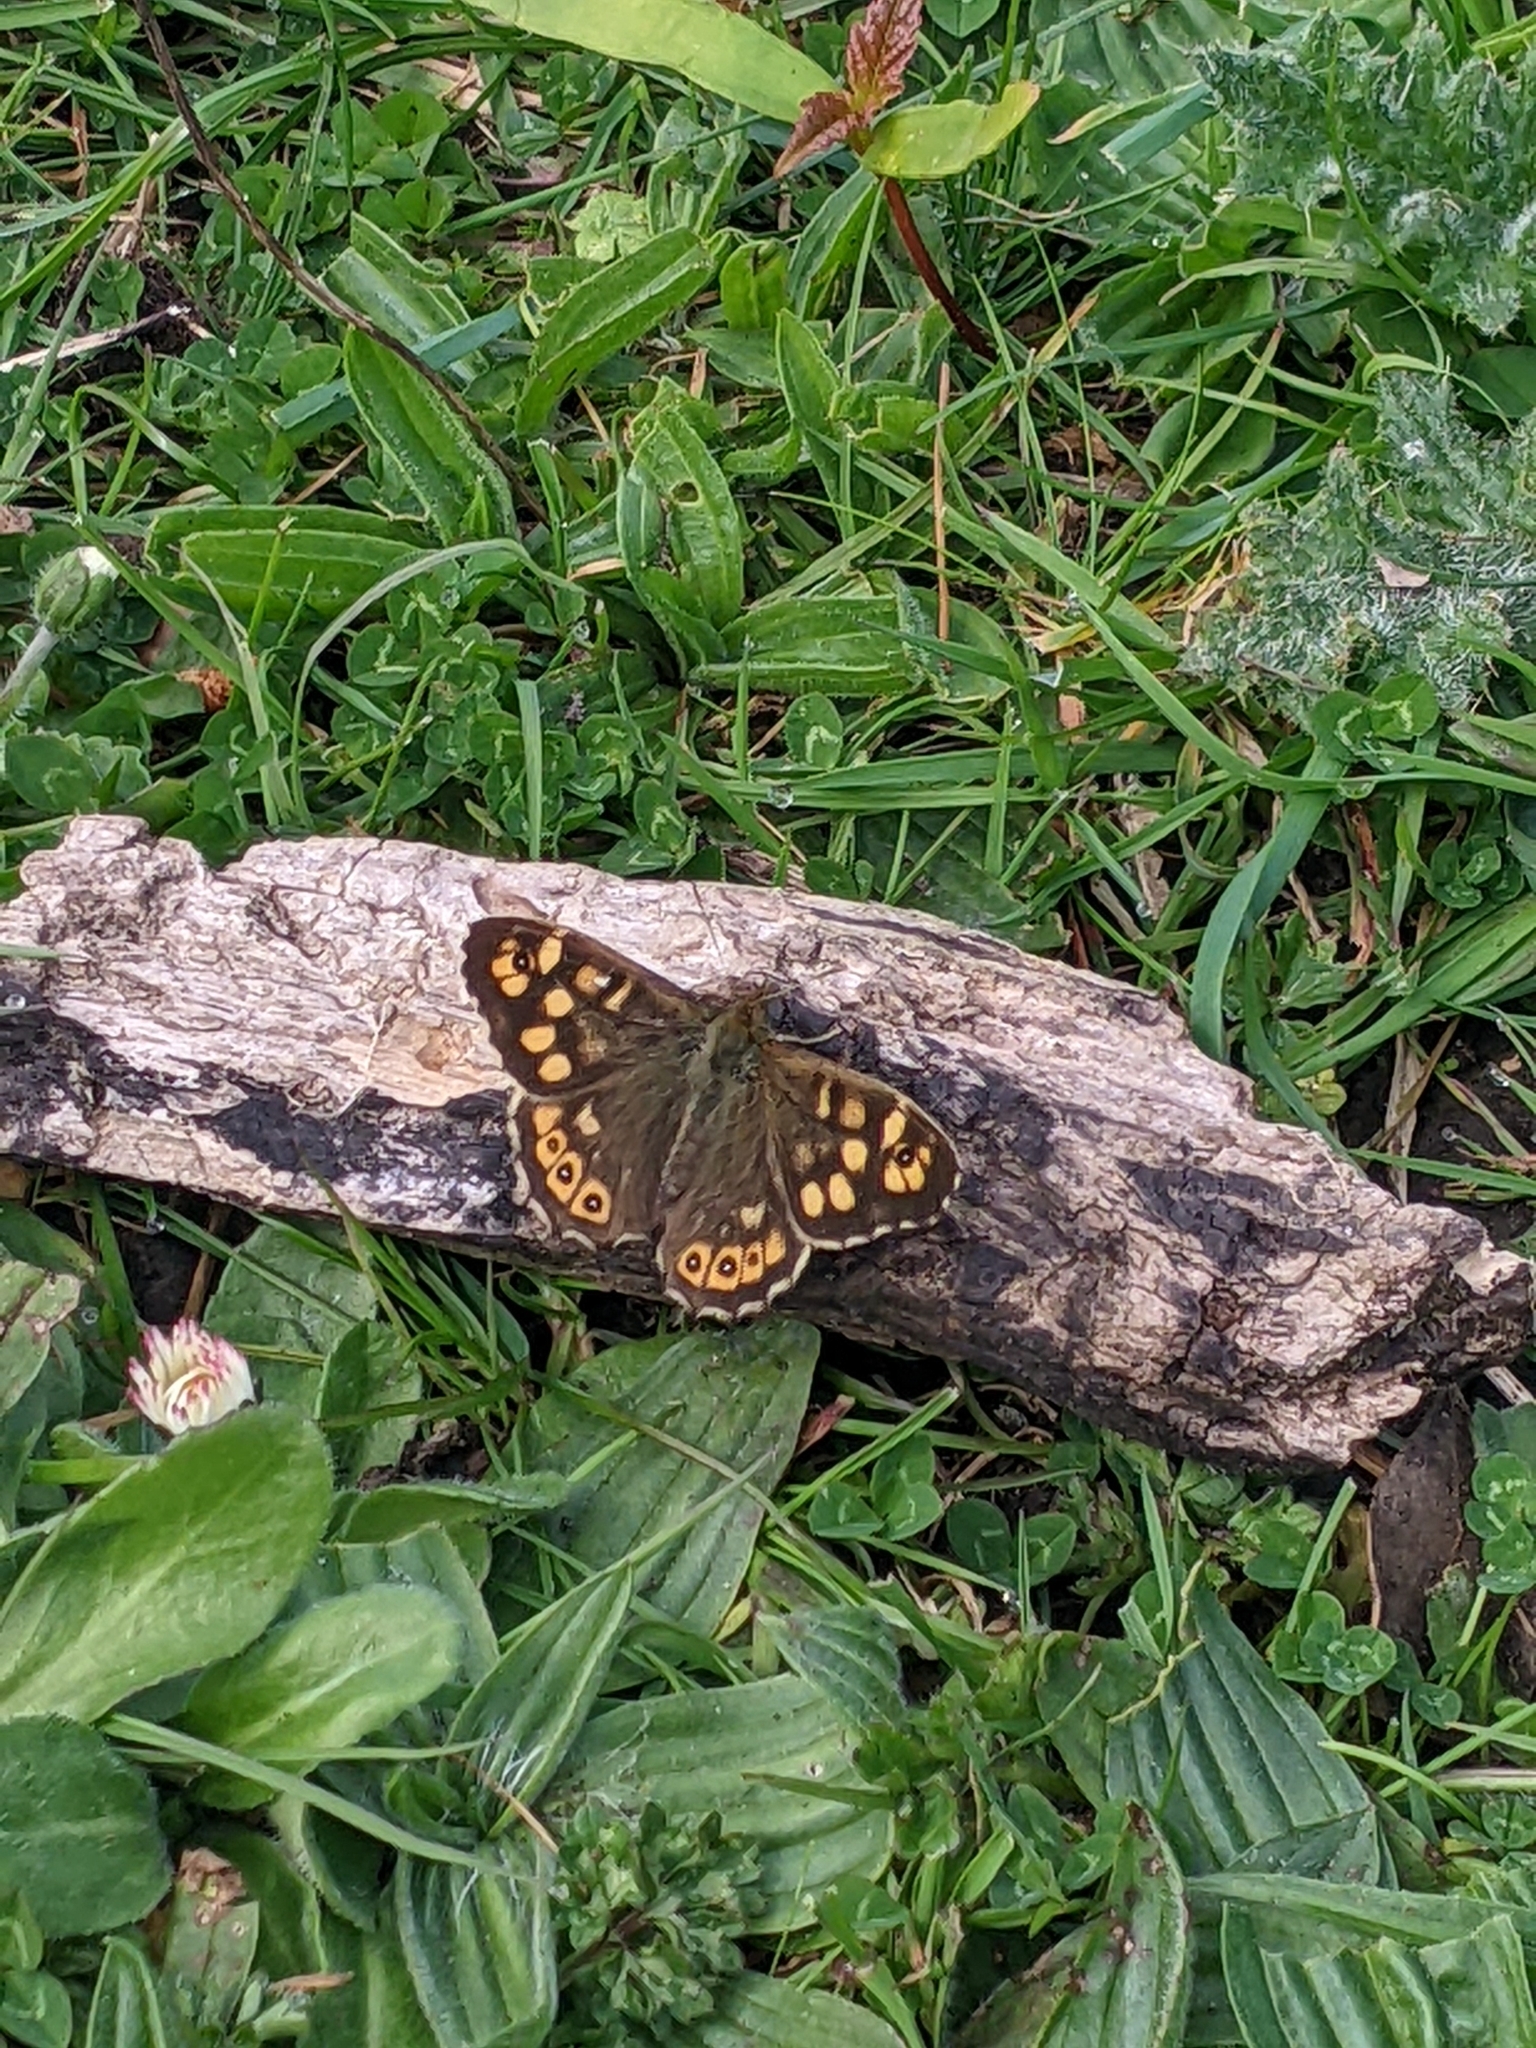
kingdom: Animalia
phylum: Arthropoda
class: Insecta
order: Lepidoptera
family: Nymphalidae
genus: Pararge
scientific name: Pararge aegeria
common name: Speckled wood
